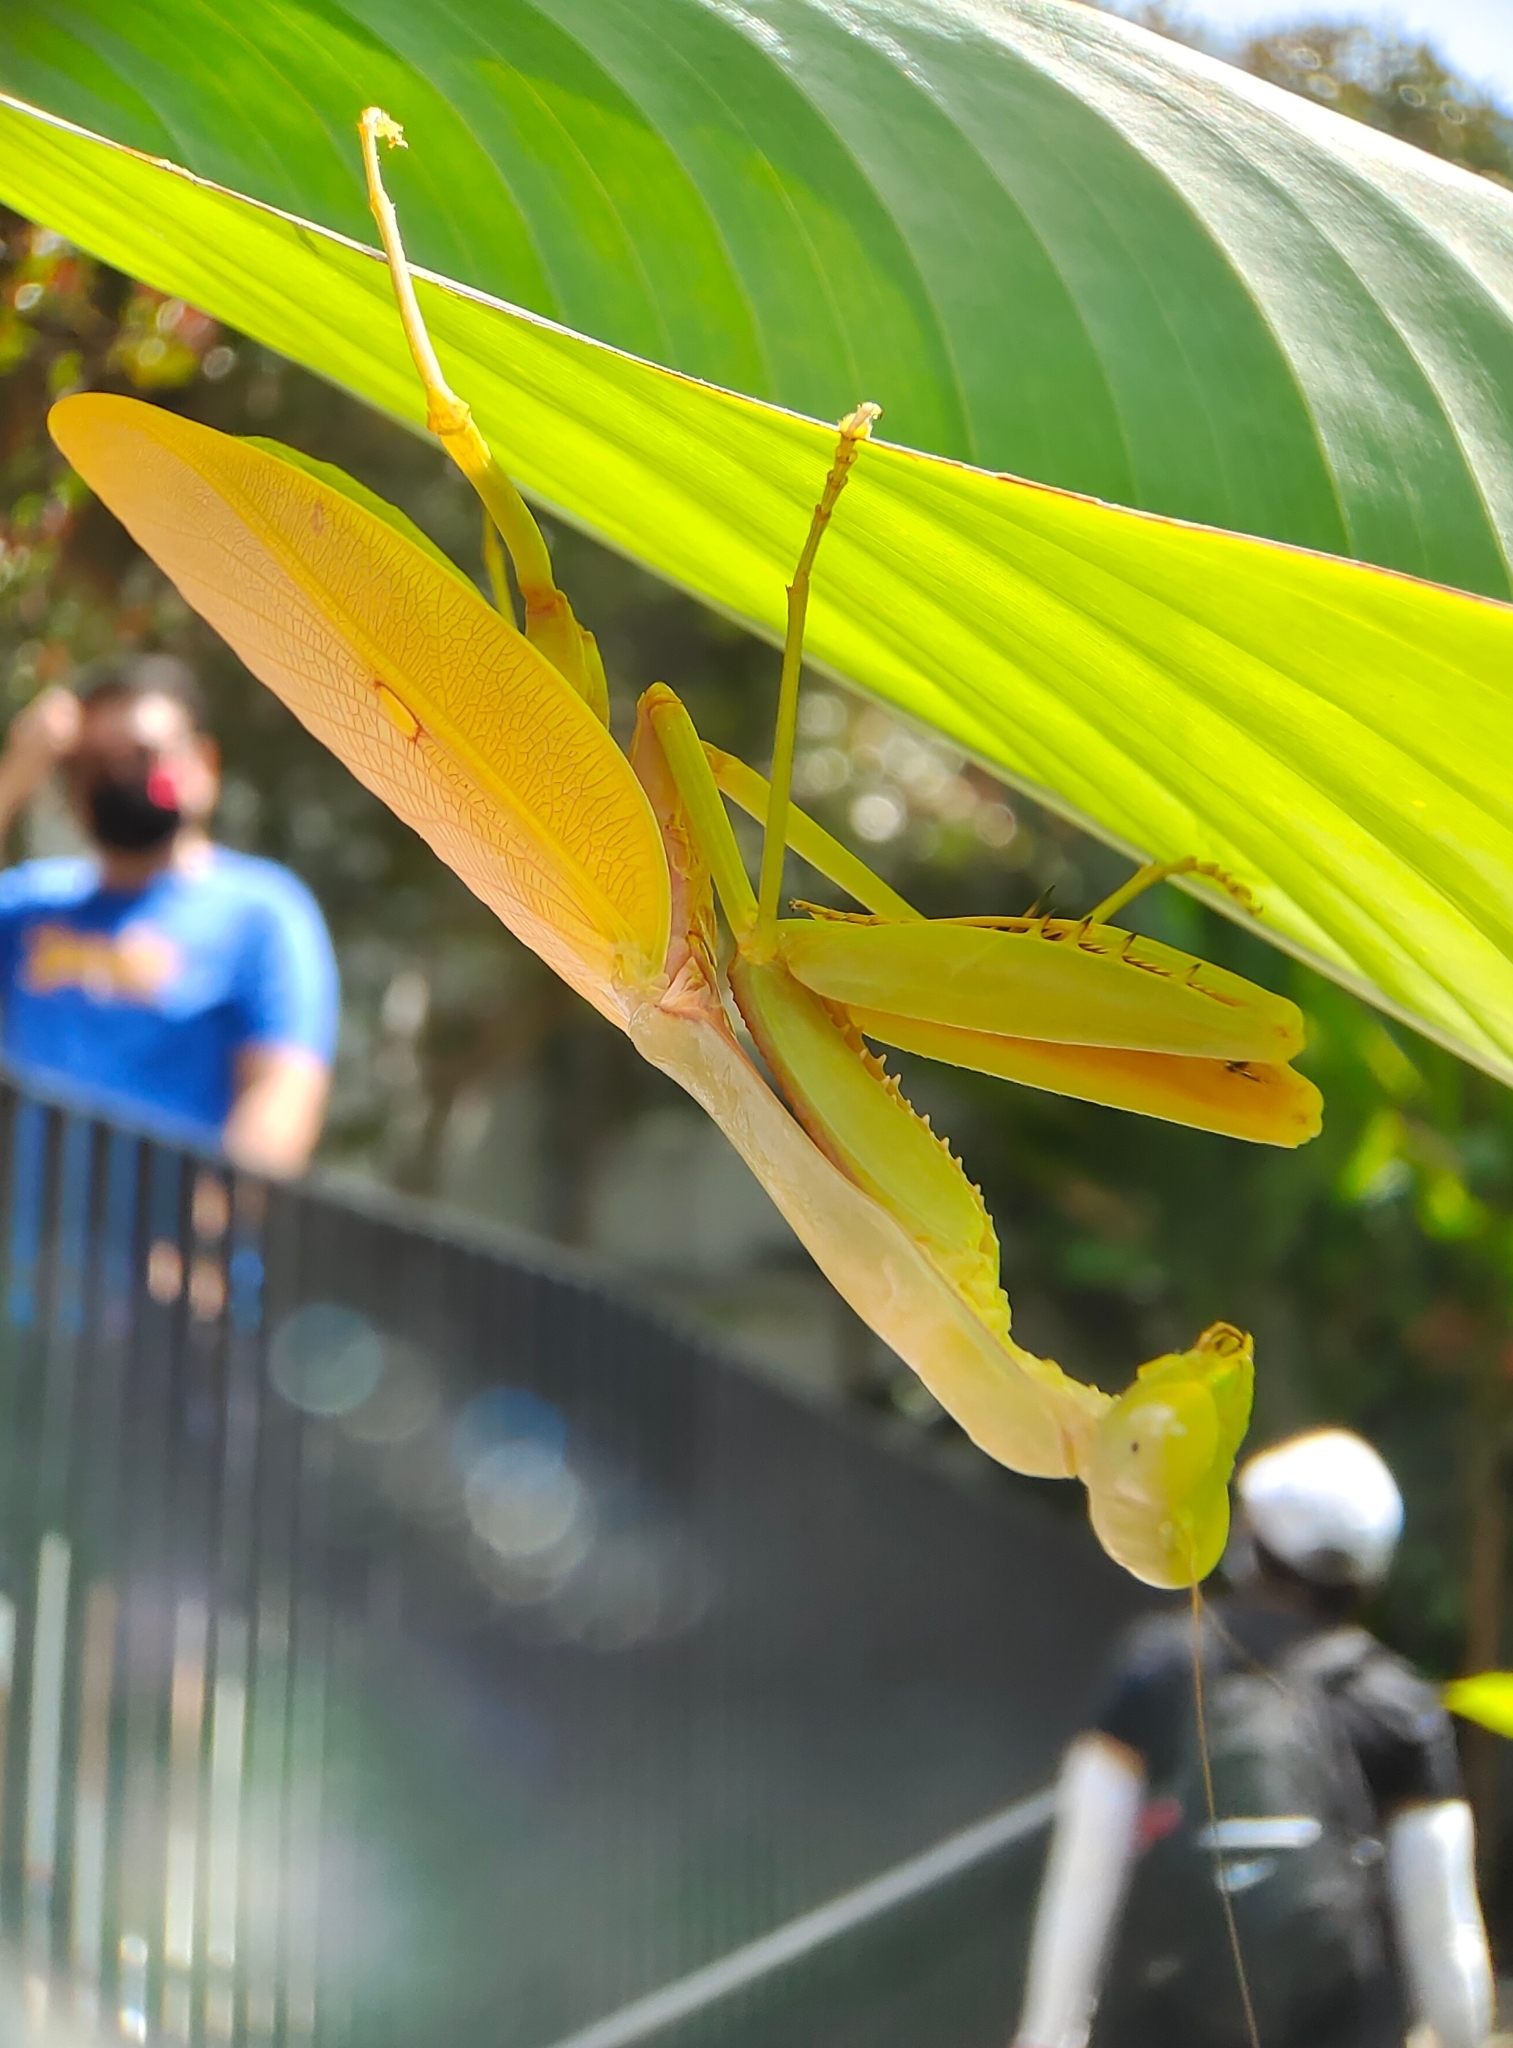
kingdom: Animalia
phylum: Arthropoda
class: Insecta
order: Mantodea
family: Mantidae
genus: Hierodula
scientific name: Hierodula venosa
